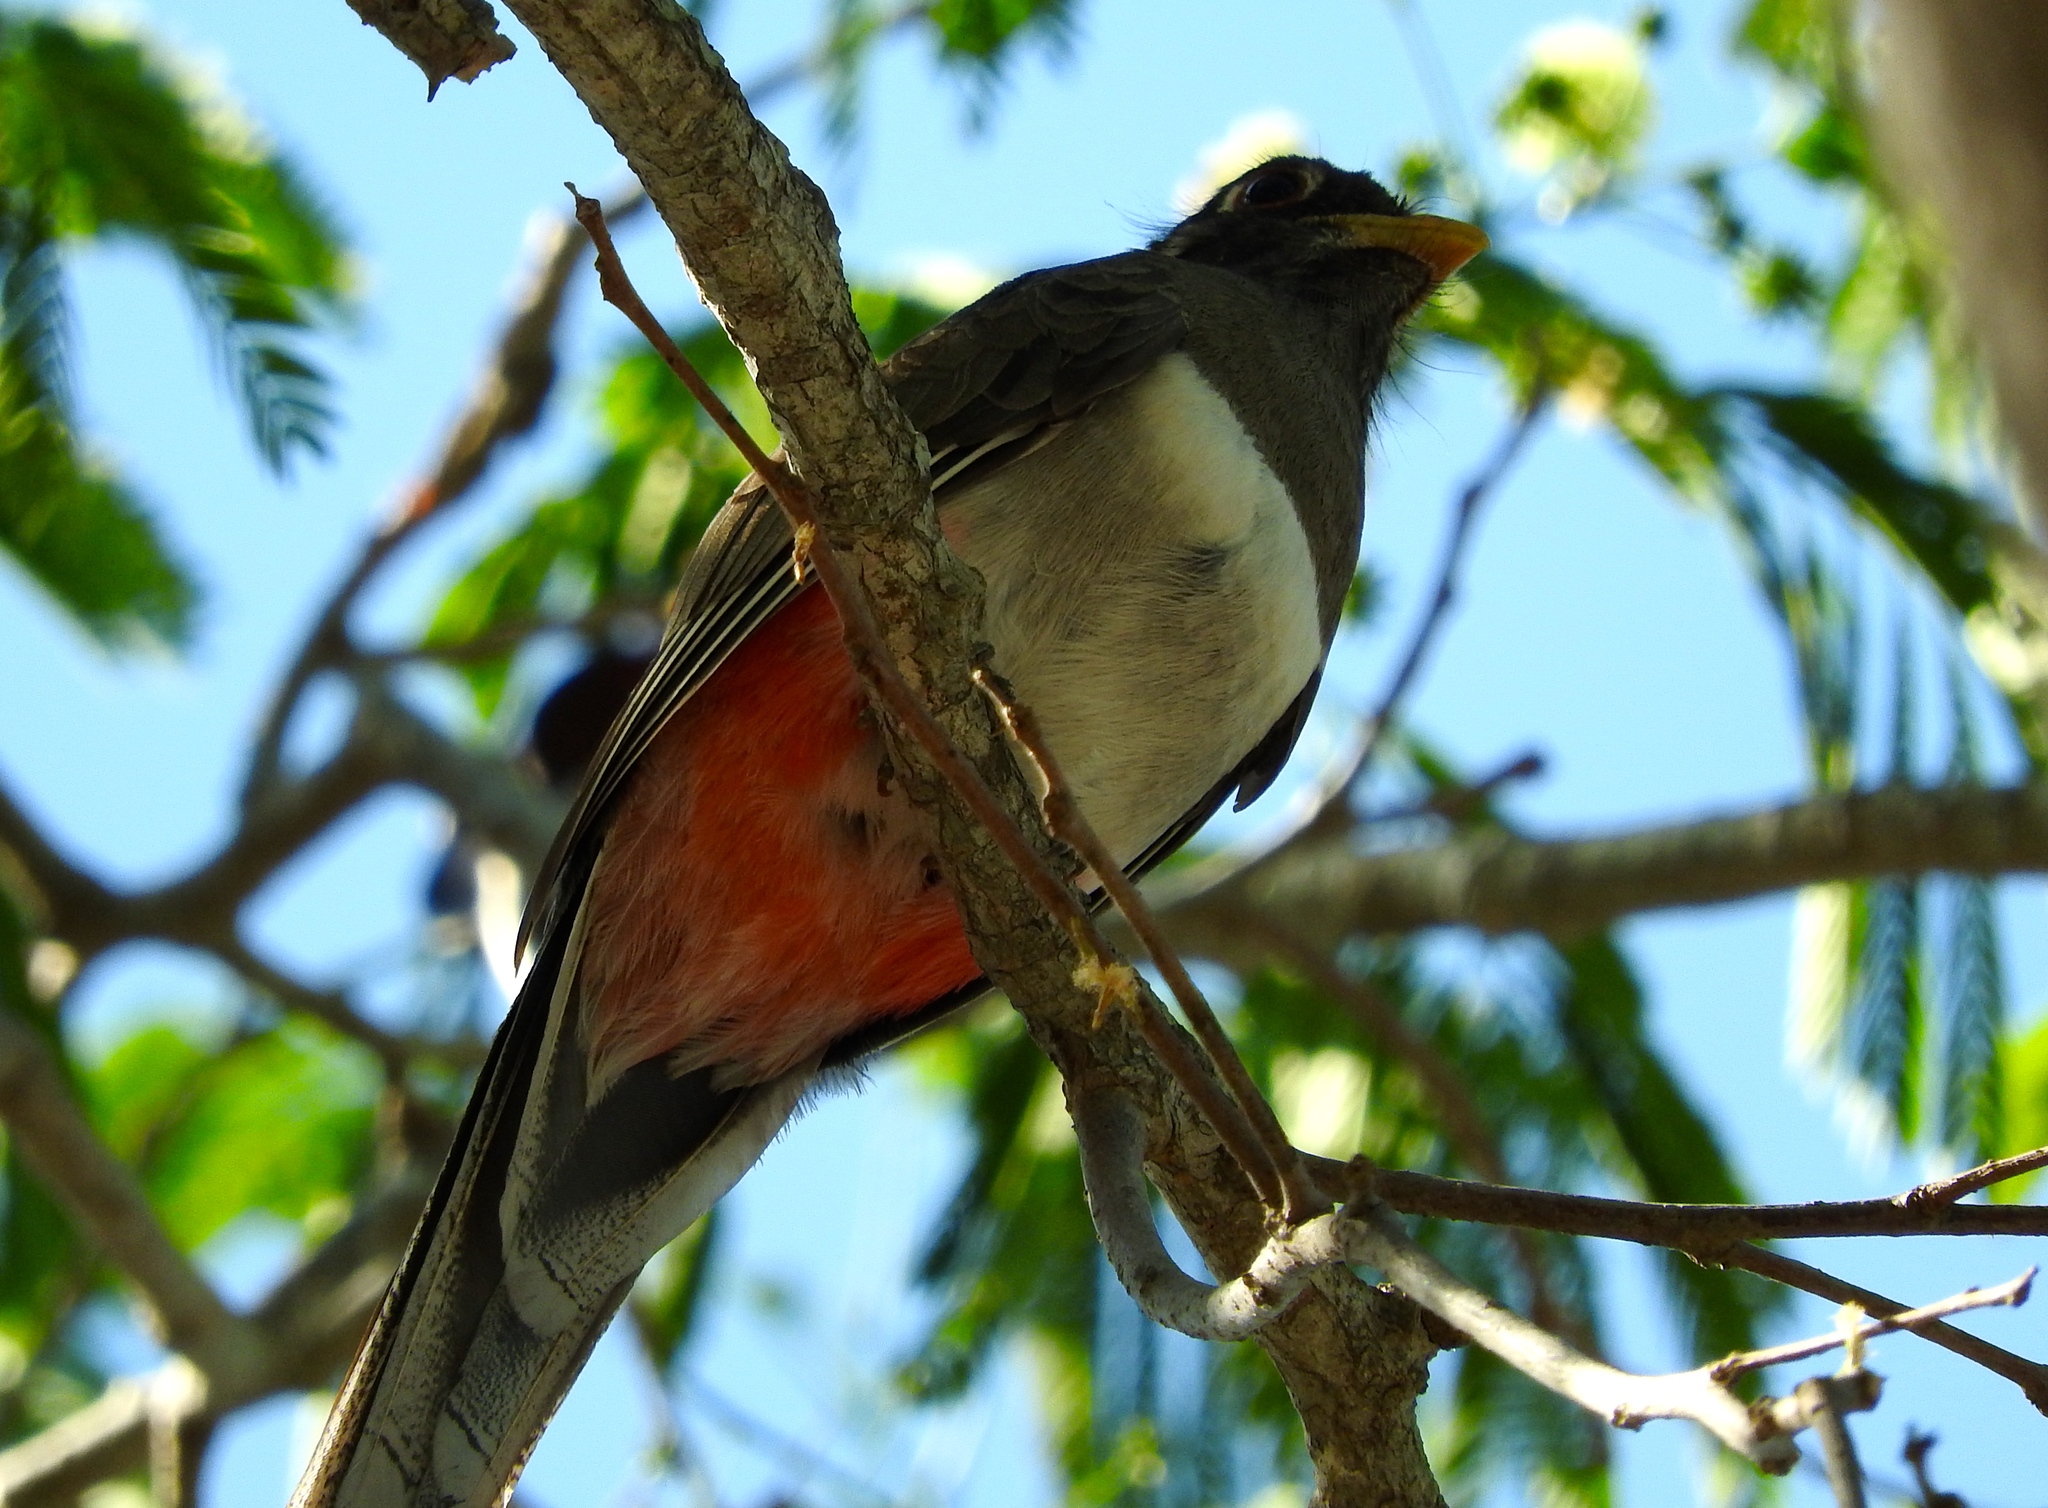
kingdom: Animalia
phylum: Chordata
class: Aves
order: Trogoniformes
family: Trogonidae
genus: Trogon
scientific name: Trogon elegans
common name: Elegant trogon
